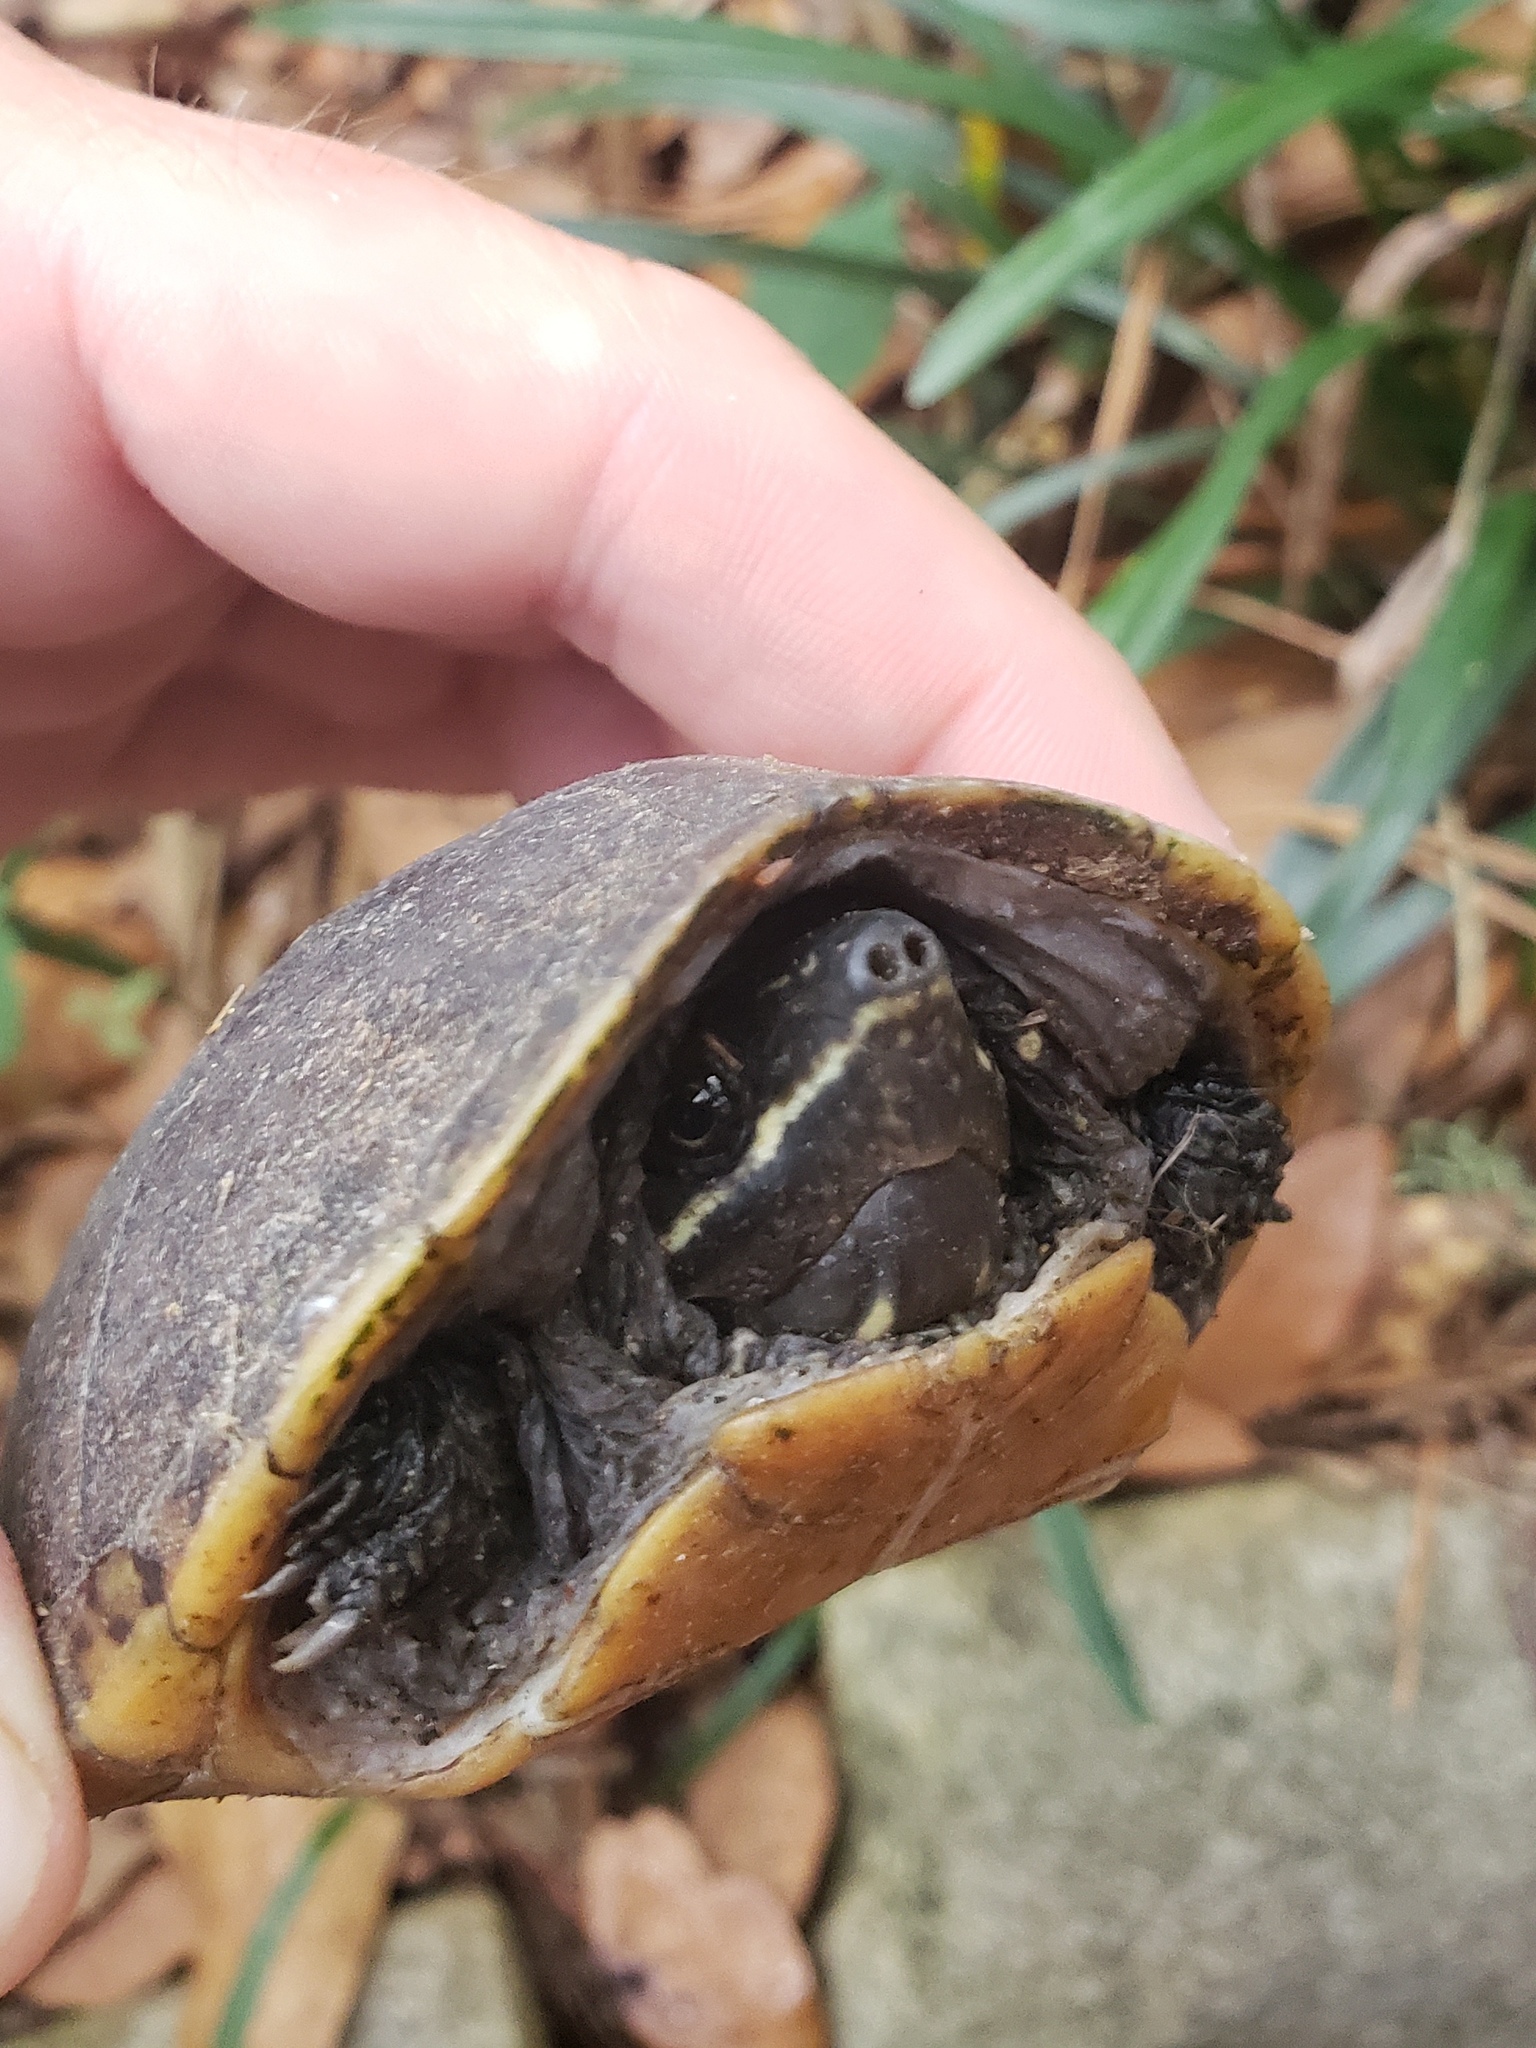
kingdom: Animalia
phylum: Chordata
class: Testudines
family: Kinosternidae
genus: Sternotherus
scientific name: Sternotherus odoratus
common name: Common musk turtle
